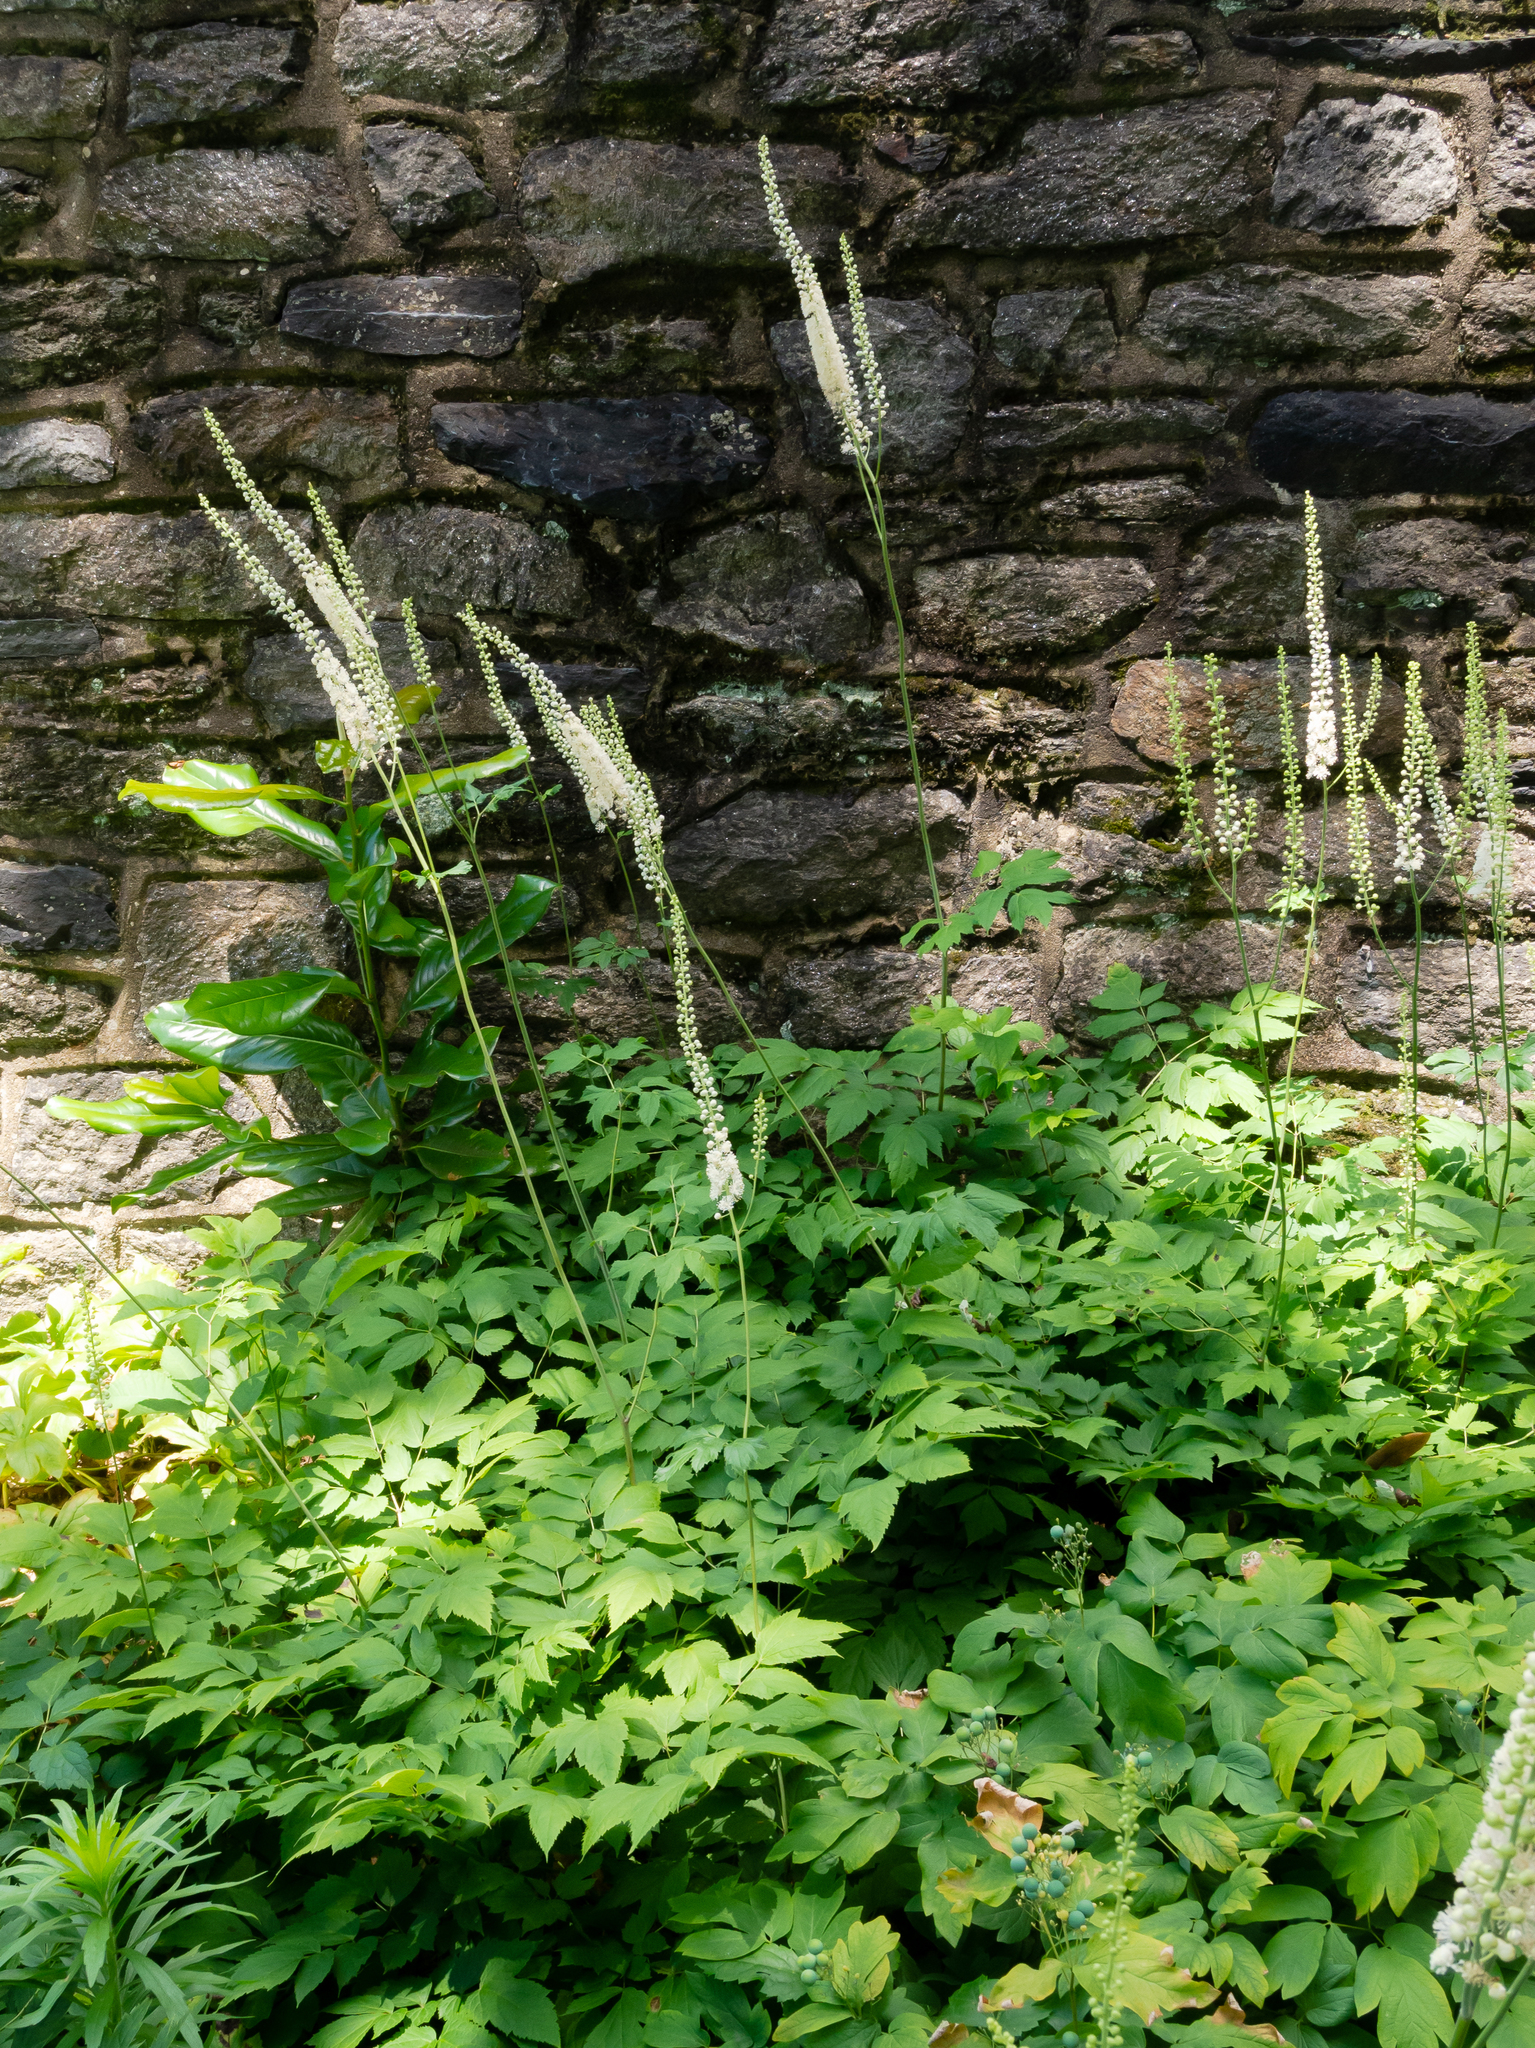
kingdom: Plantae
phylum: Tracheophyta
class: Magnoliopsida
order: Ranunculales
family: Ranunculaceae
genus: Actaea
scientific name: Actaea racemosa
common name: Black cohosh
